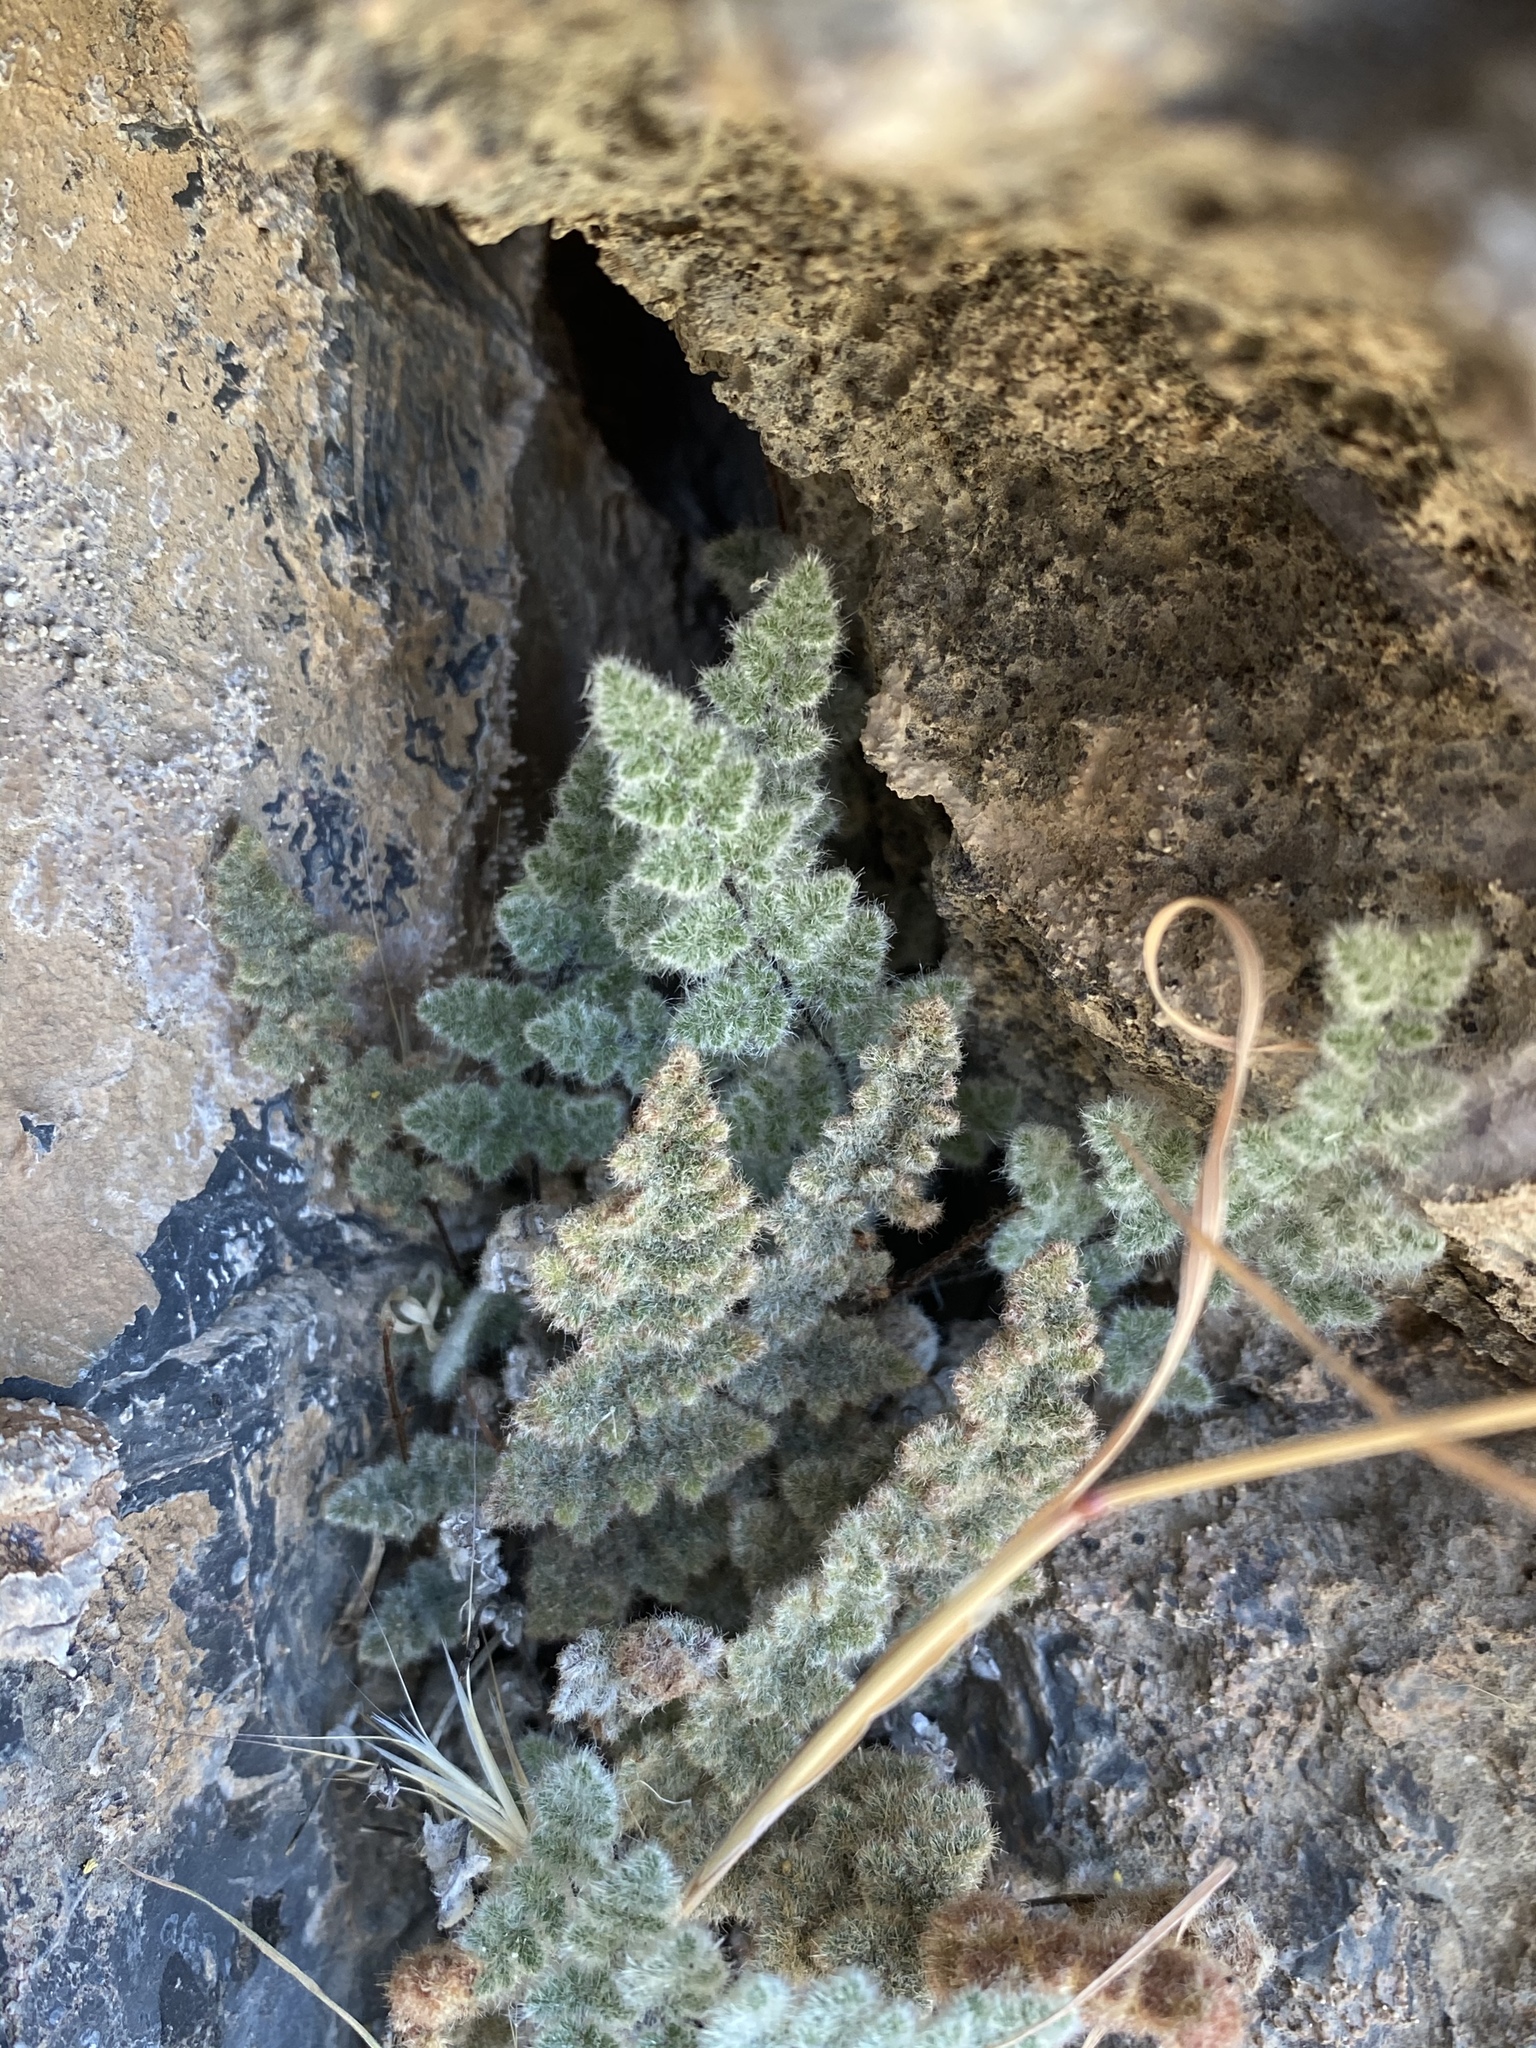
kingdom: Plantae
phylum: Tracheophyta
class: Polypodiopsida
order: Polypodiales
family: Pteridaceae
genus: Myriopteris
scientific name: Myriopteris parryi
